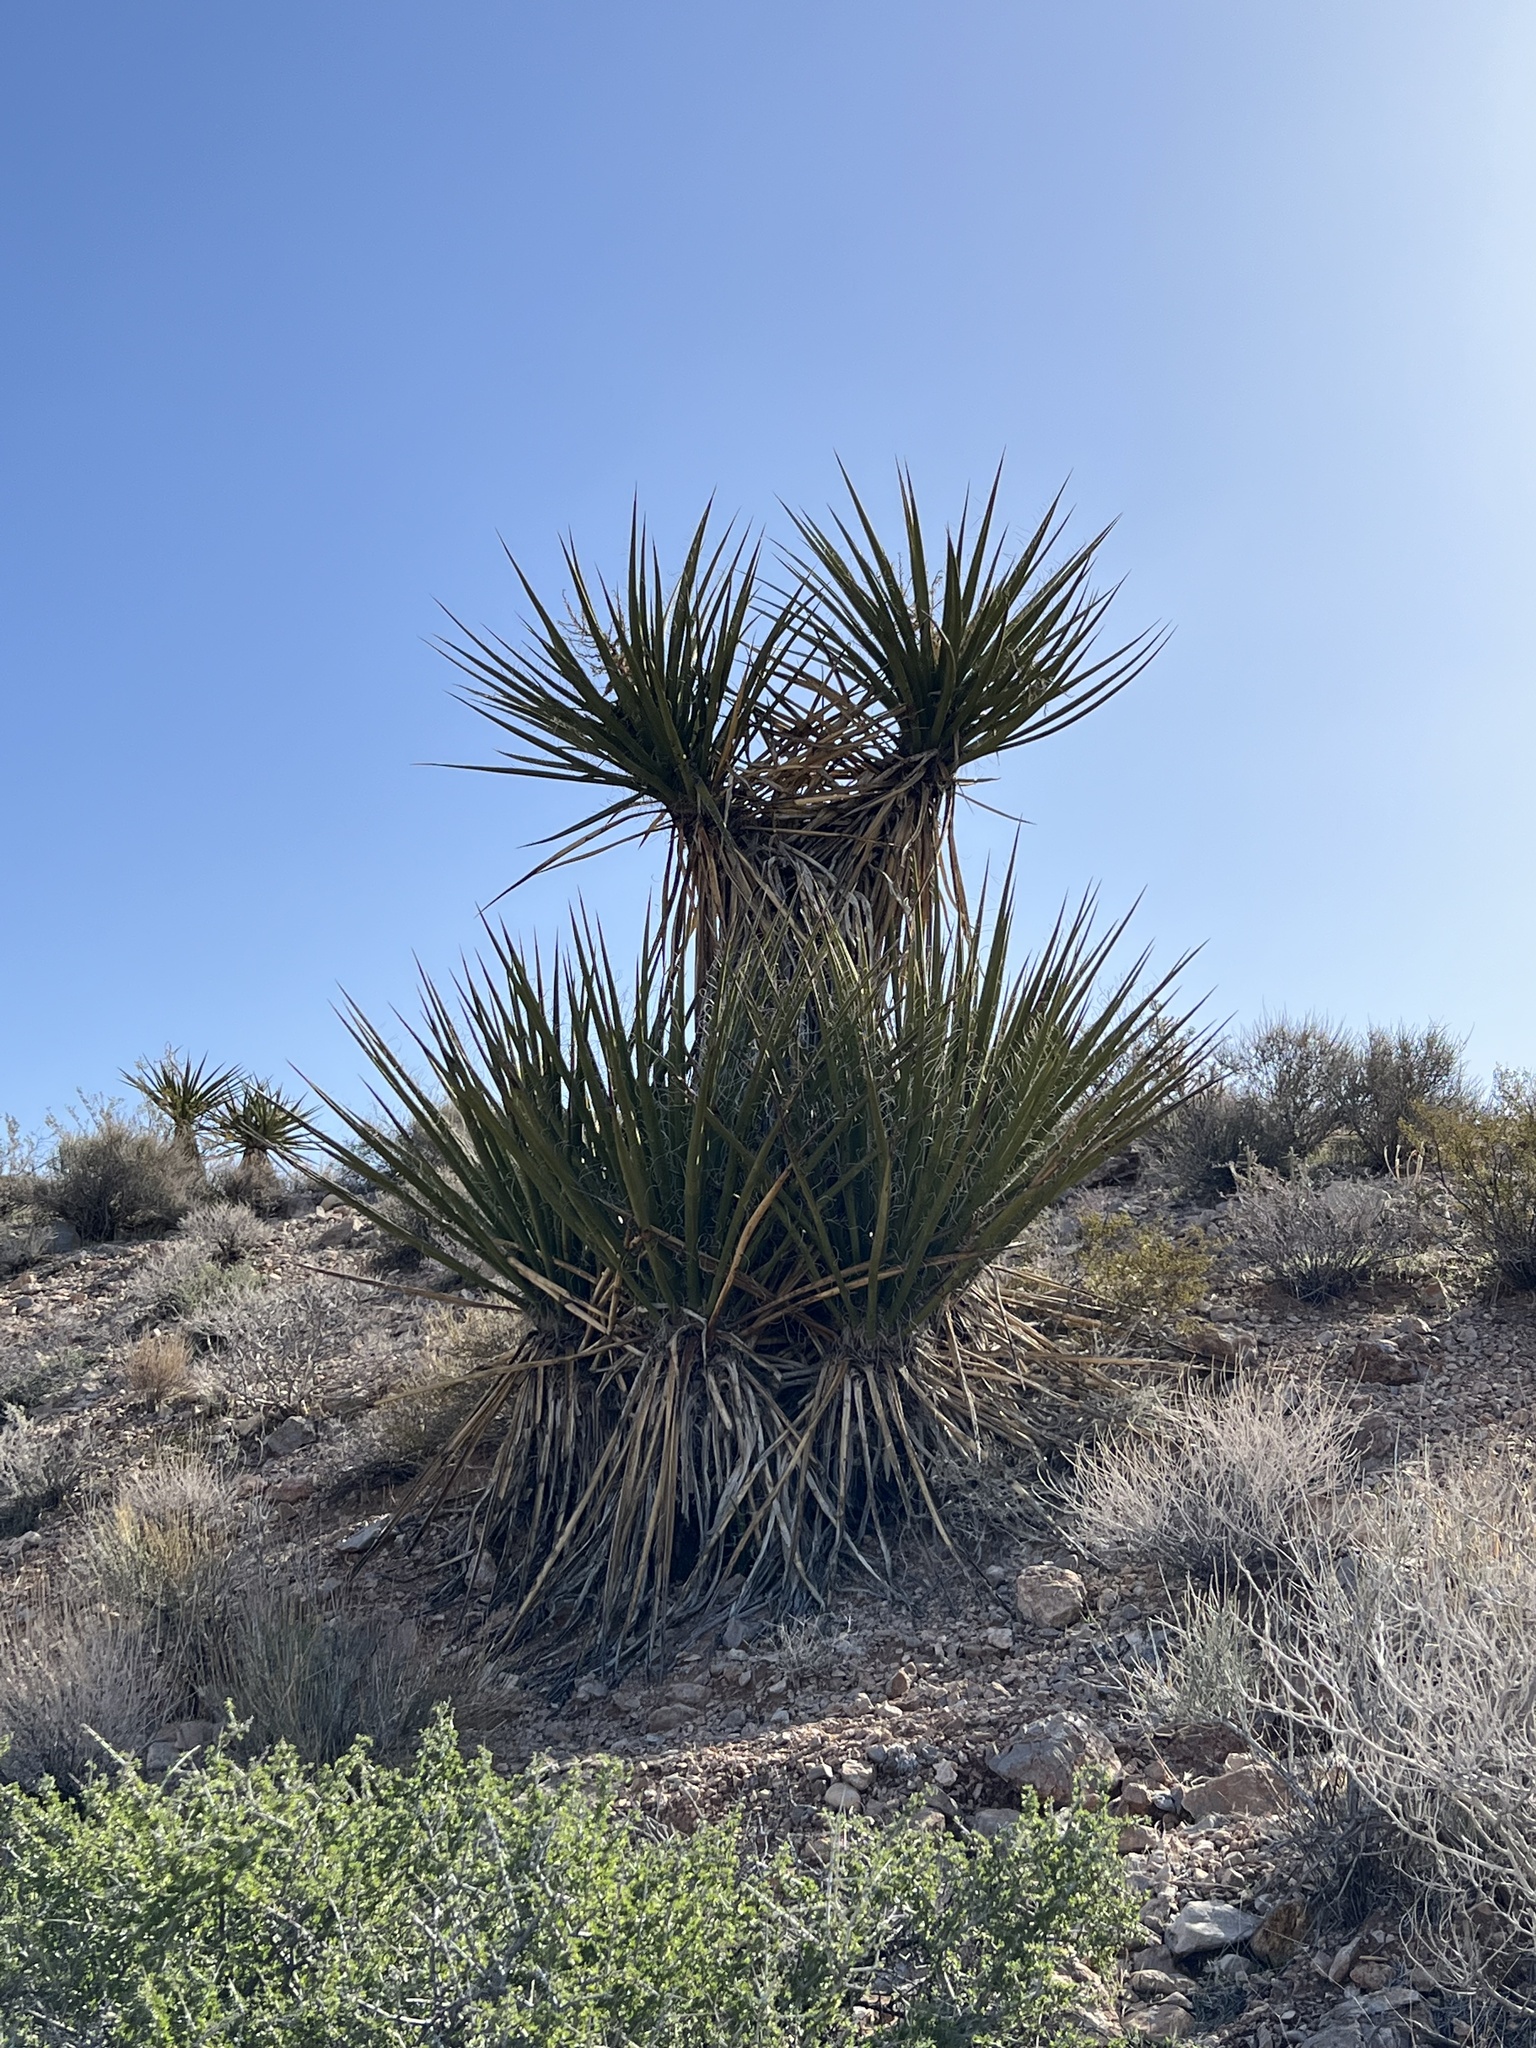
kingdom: Plantae
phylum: Tracheophyta
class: Liliopsida
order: Asparagales
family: Asparagaceae
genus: Yucca
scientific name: Yucca schidigera
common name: Mojave yucca
